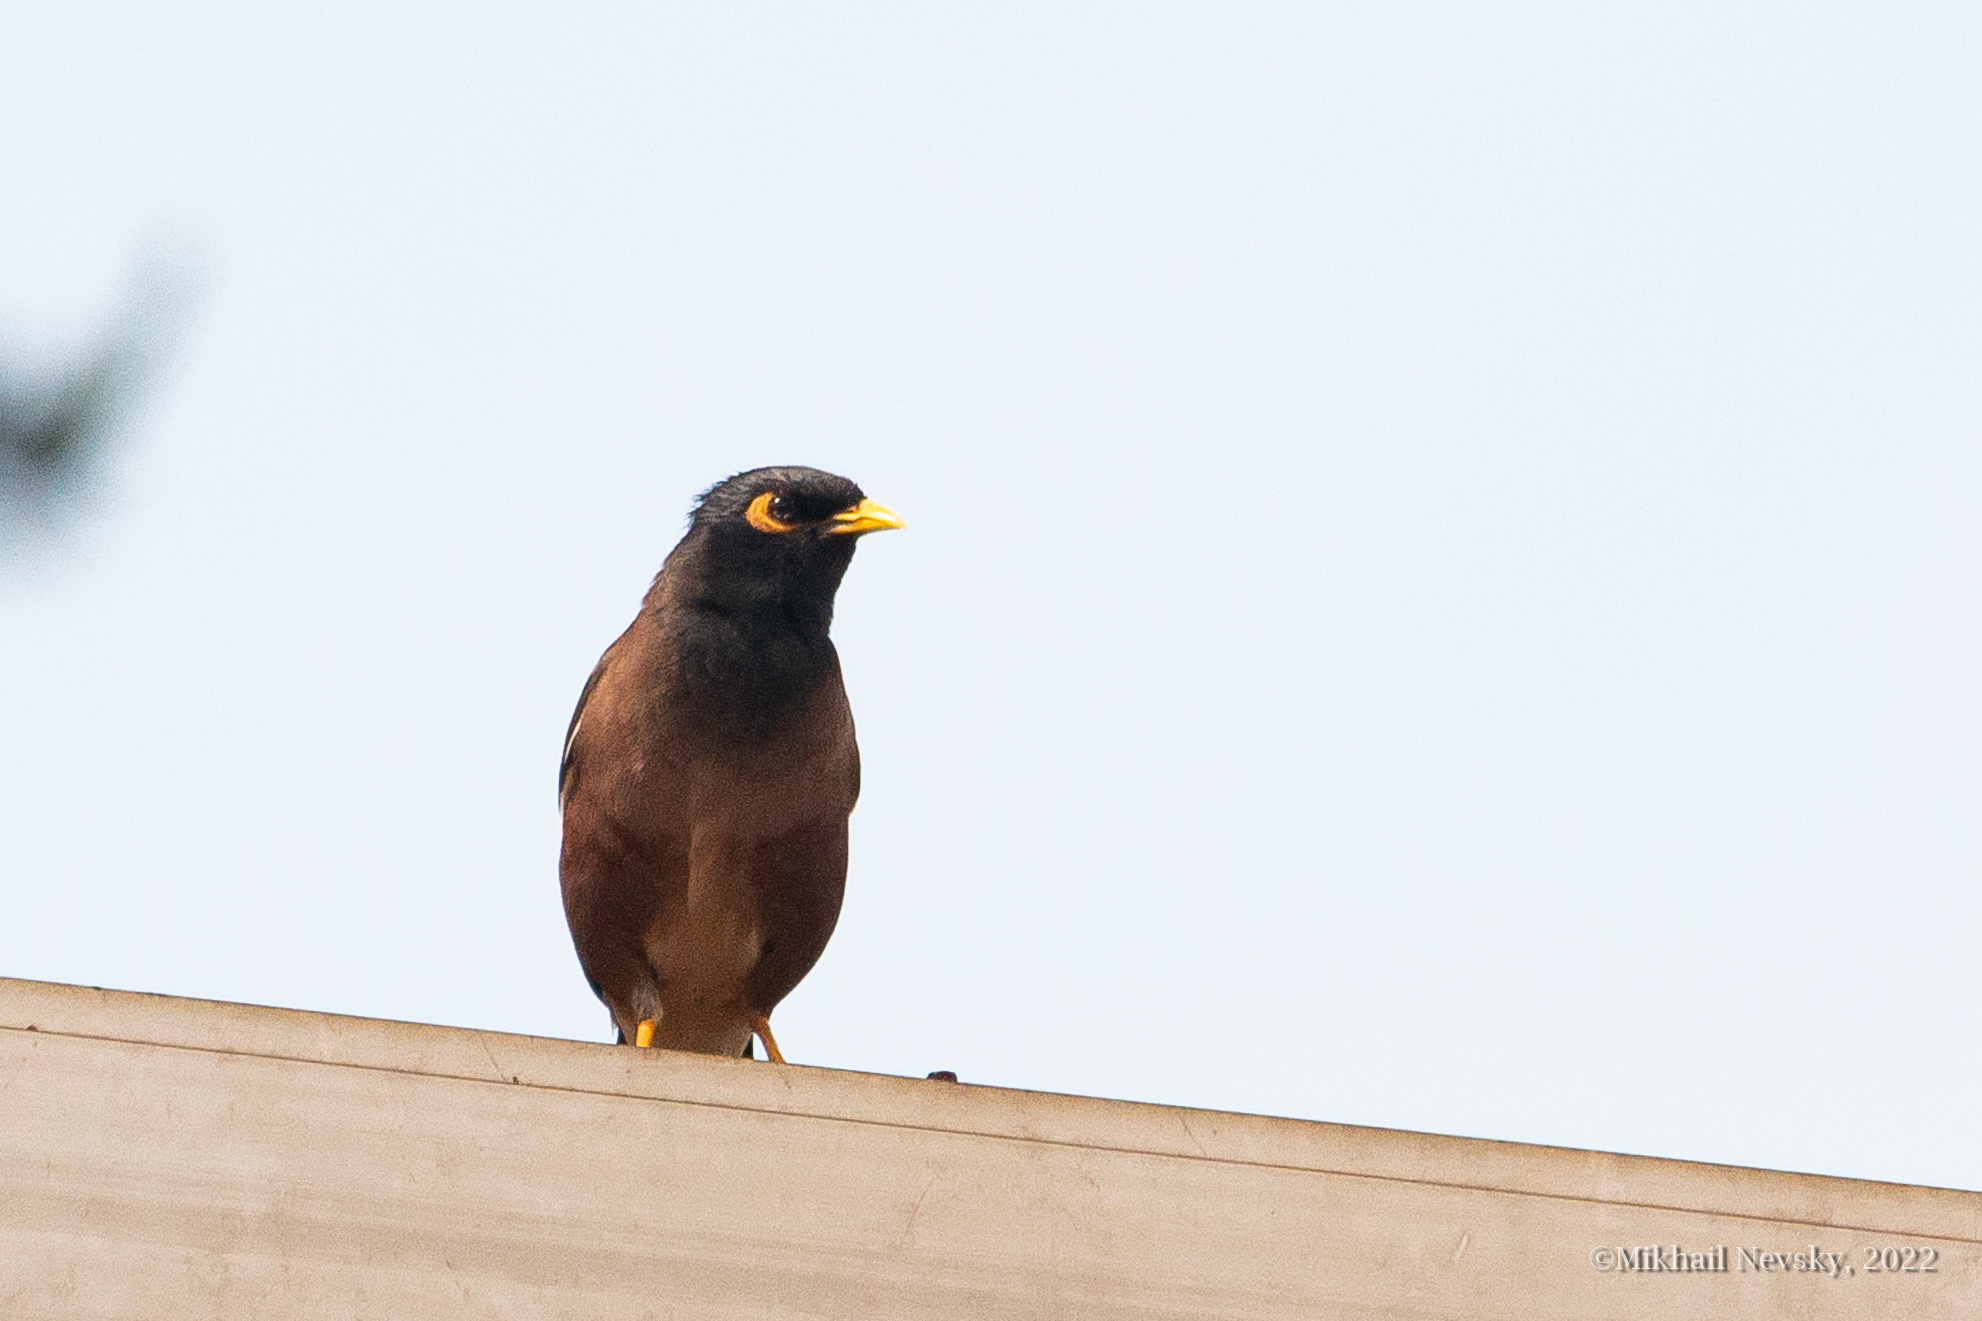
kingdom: Animalia
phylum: Chordata
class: Aves
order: Passeriformes
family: Sturnidae
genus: Acridotheres
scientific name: Acridotheres tristis
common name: Common myna
